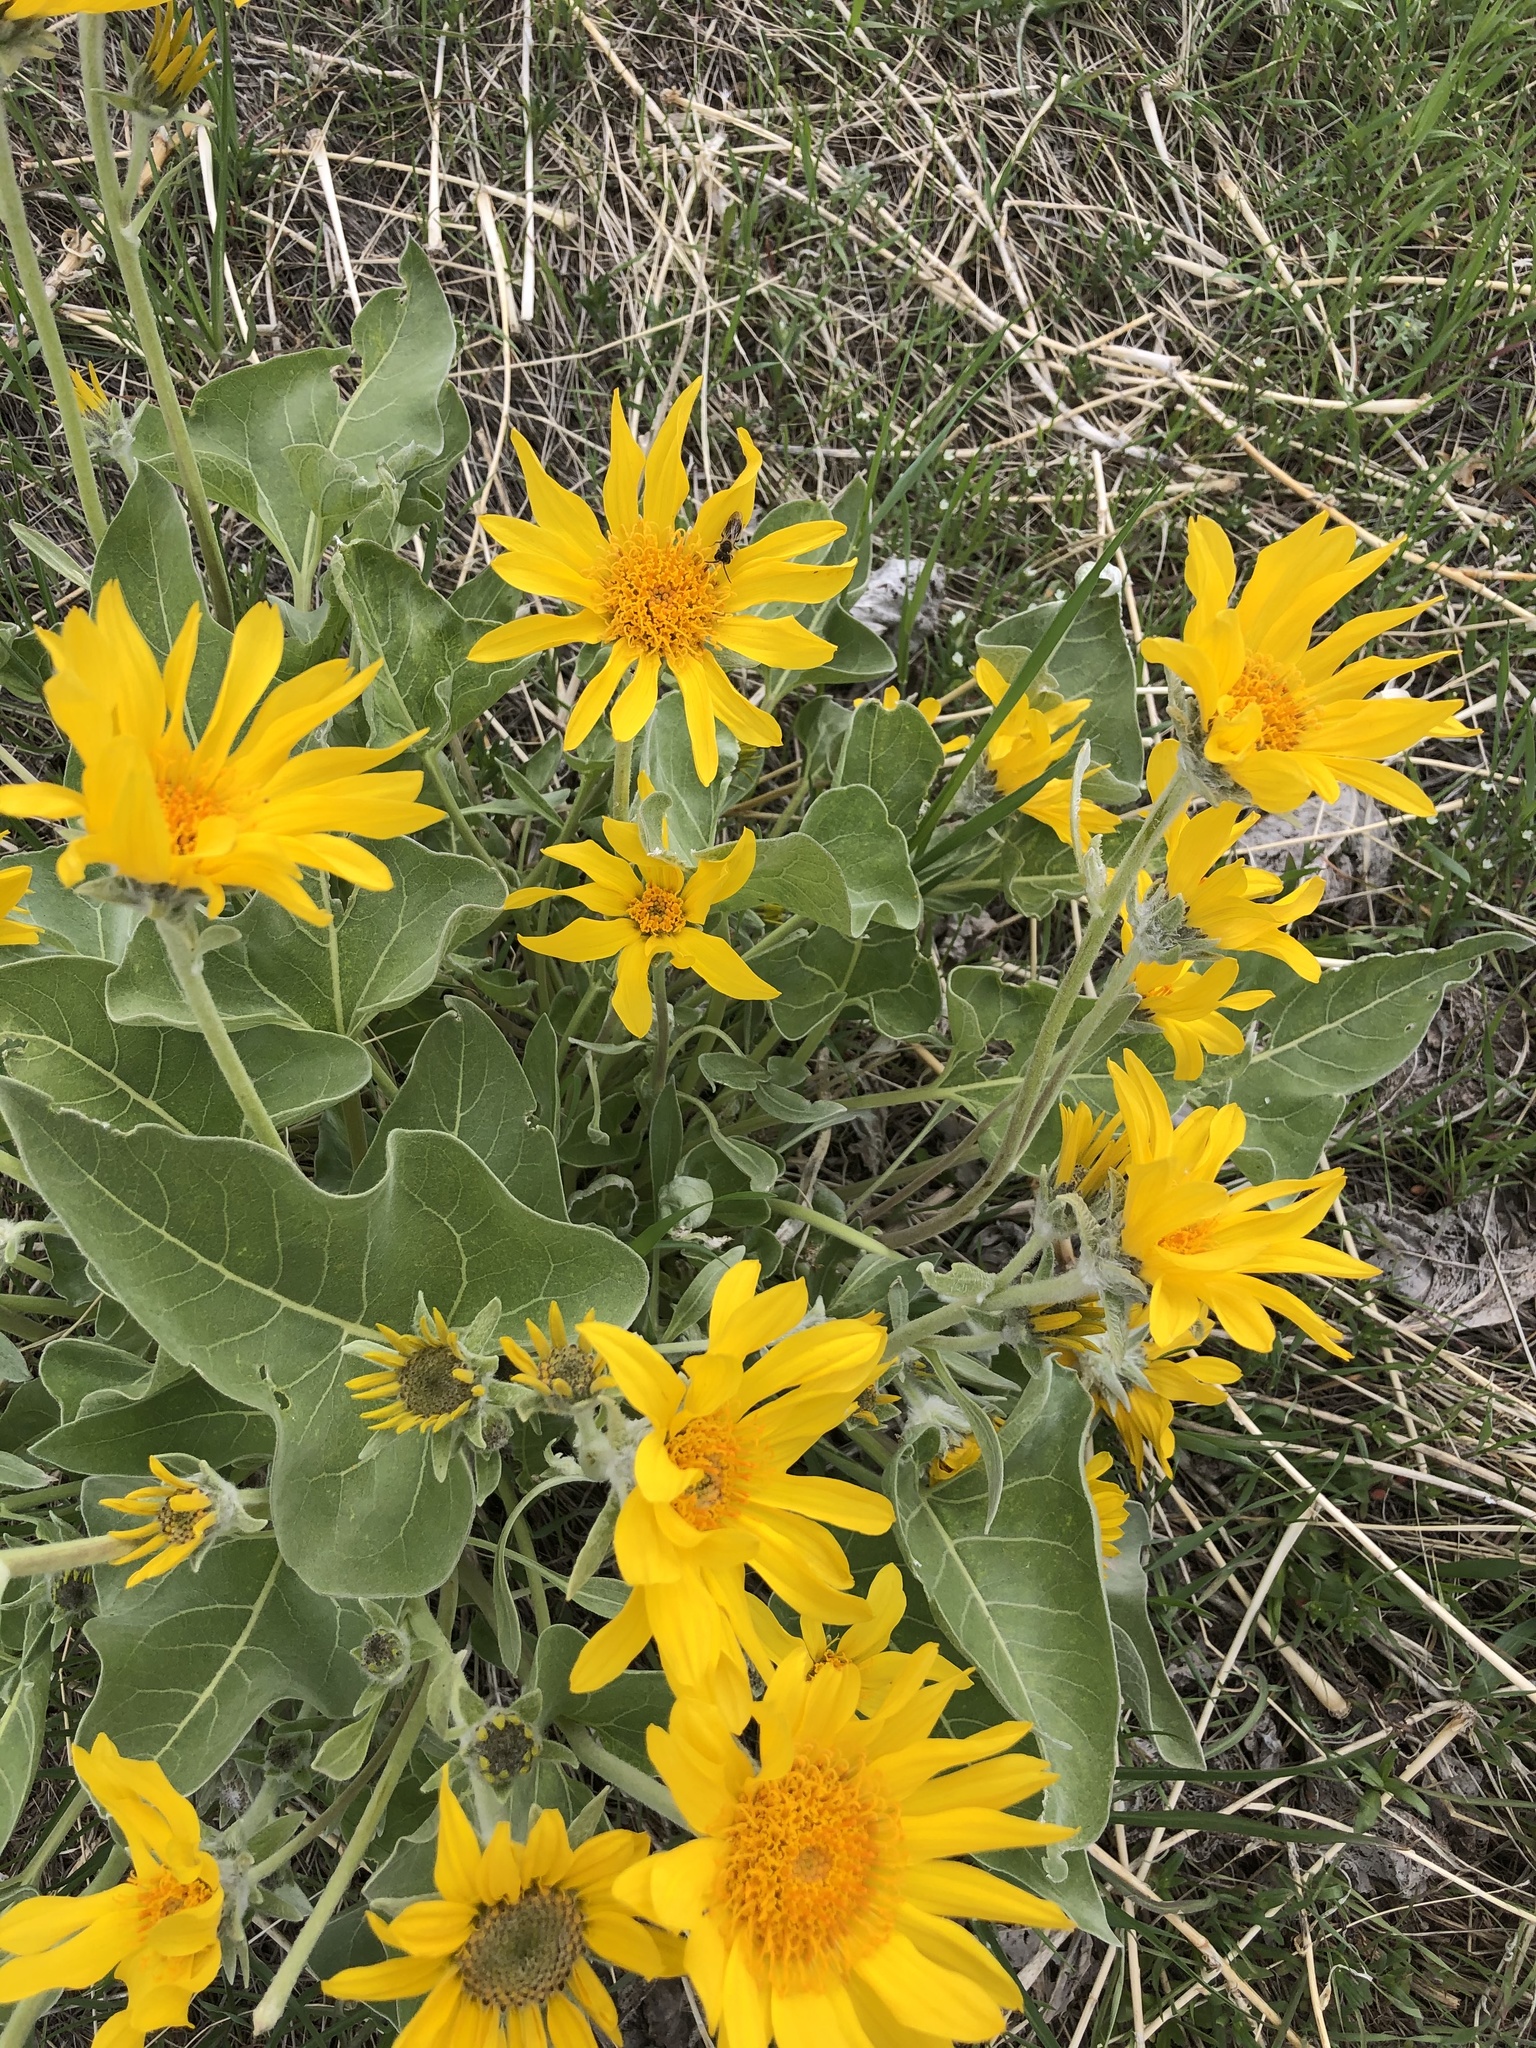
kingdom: Plantae
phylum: Tracheophyta
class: Magnoliopsida
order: Asterales
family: Asteraceae
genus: Wyethia
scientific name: Wyethia sagittata
